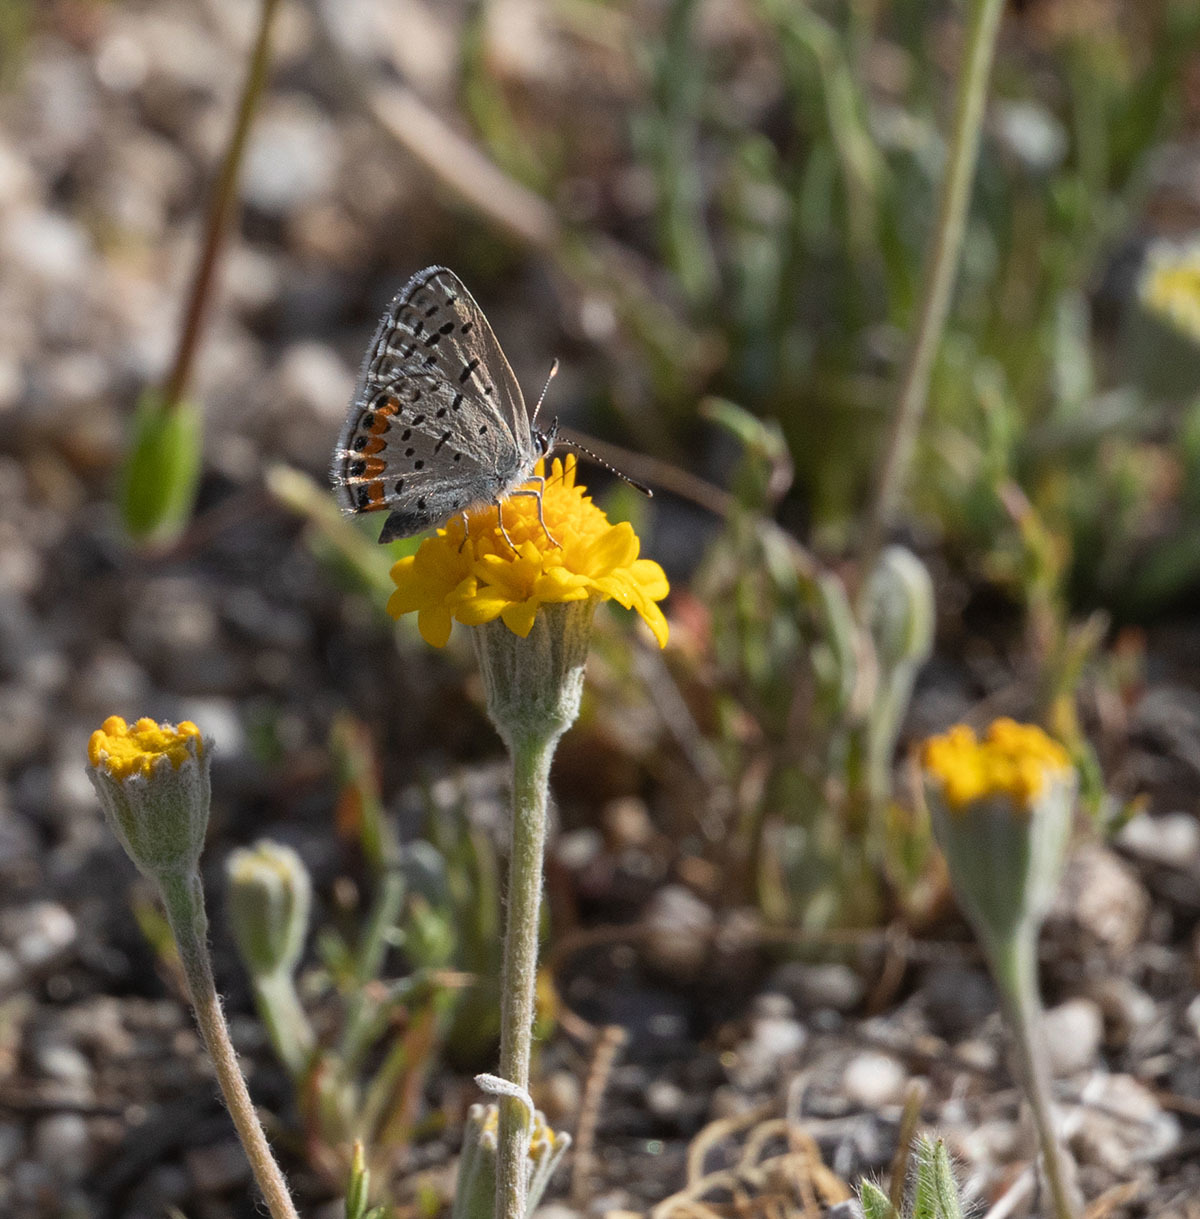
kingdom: Animalia
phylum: Arthropoda
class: Insecta
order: Lepidoptera
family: Lycaenidae
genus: Icaricia
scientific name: Icaricia acmon
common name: Acmon blue
